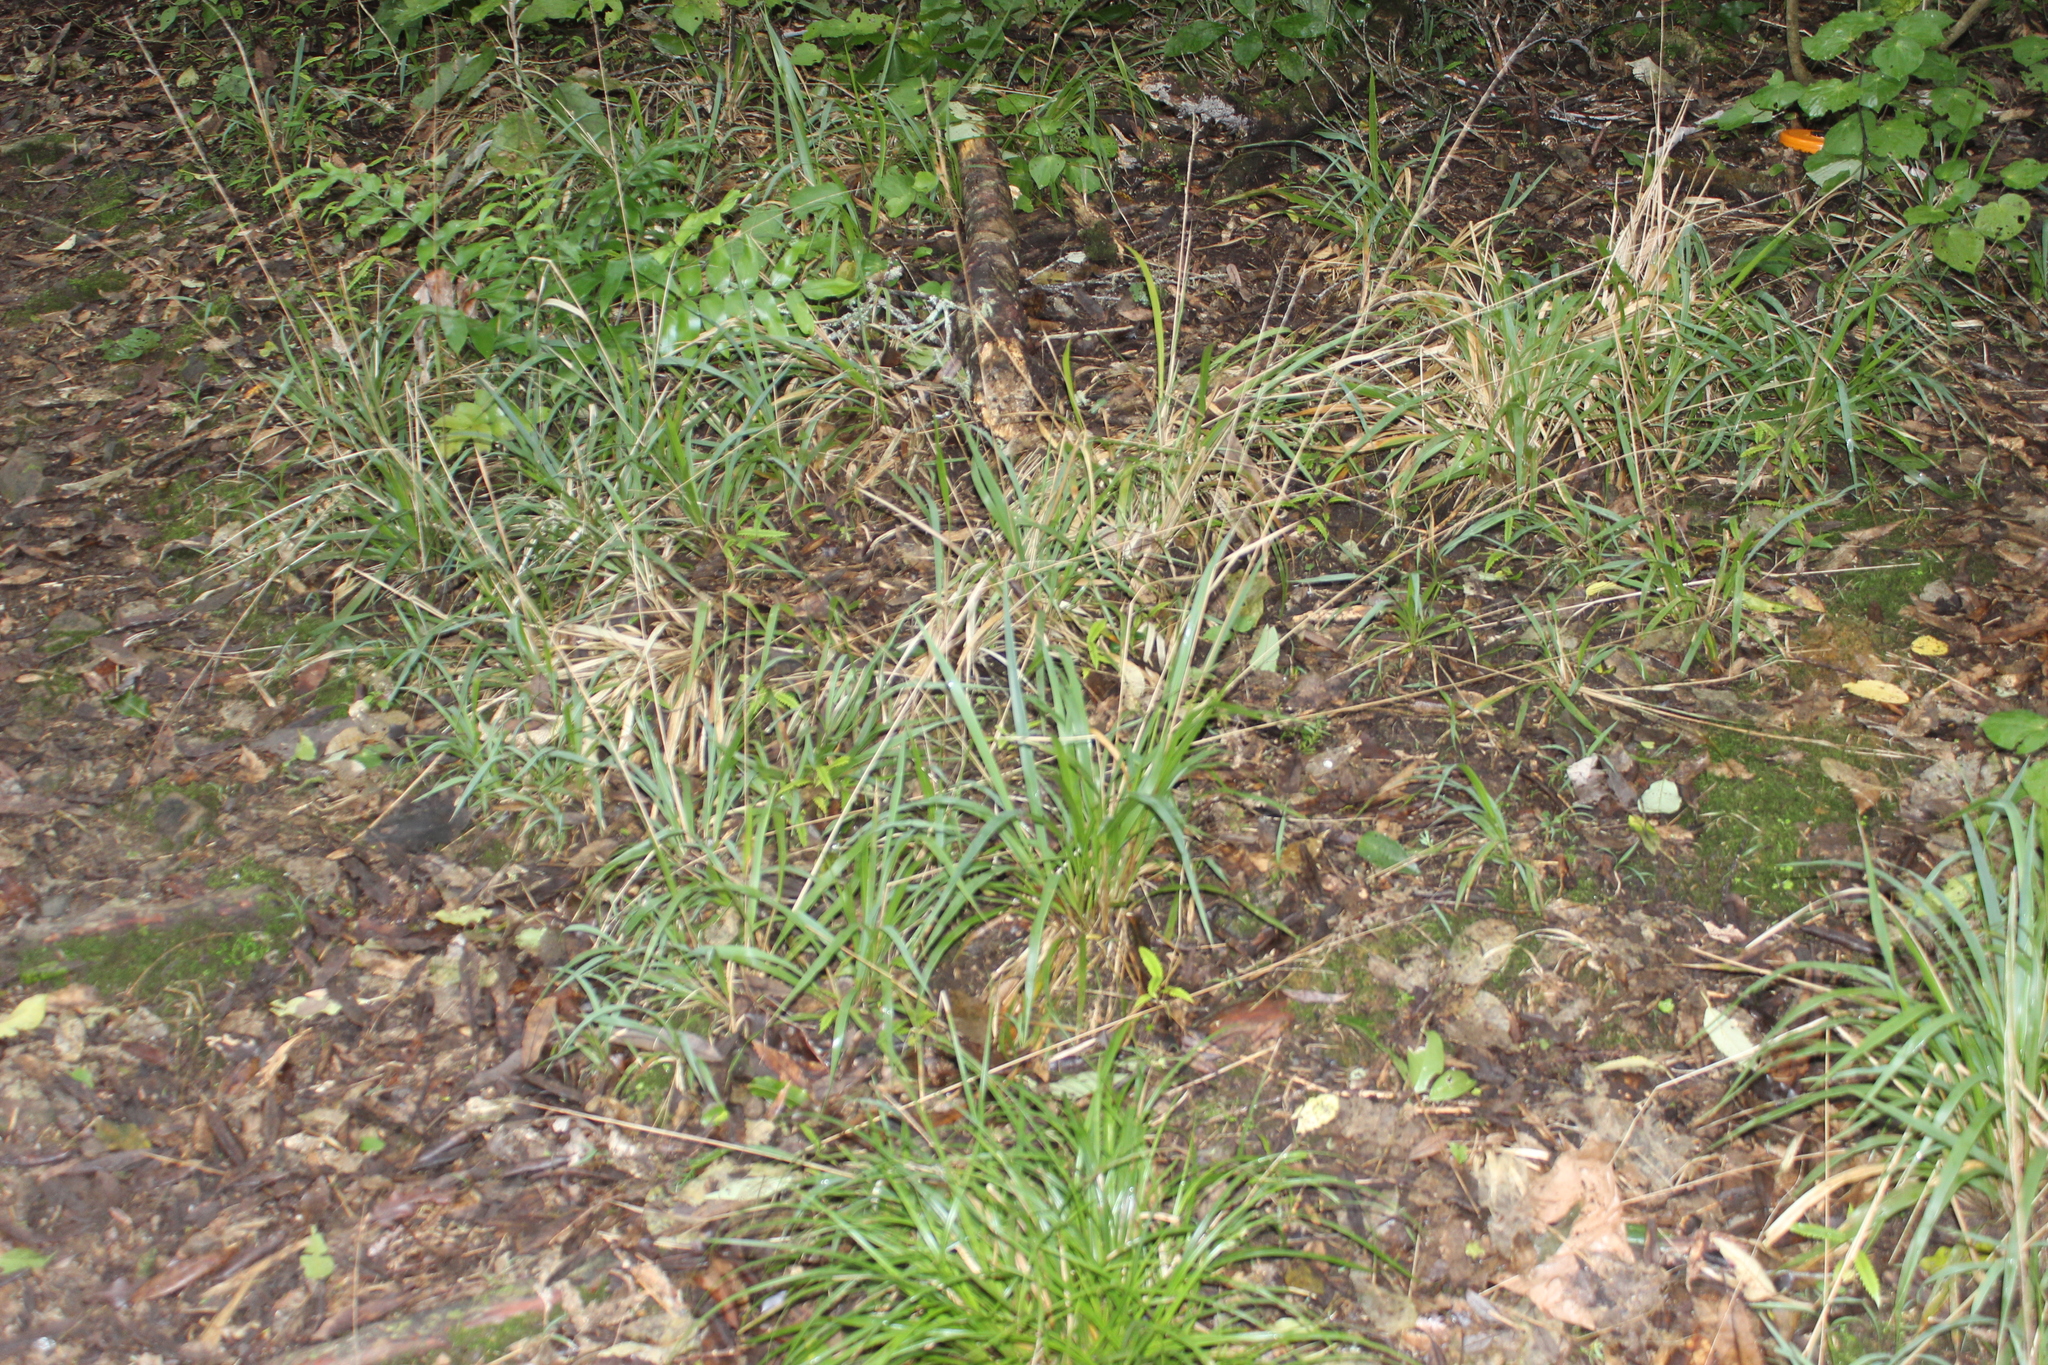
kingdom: Plantae
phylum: Tracheophyta
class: Liliopsida
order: Poales
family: Poaceae
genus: Ehrharta
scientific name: Ehrharta diplax
